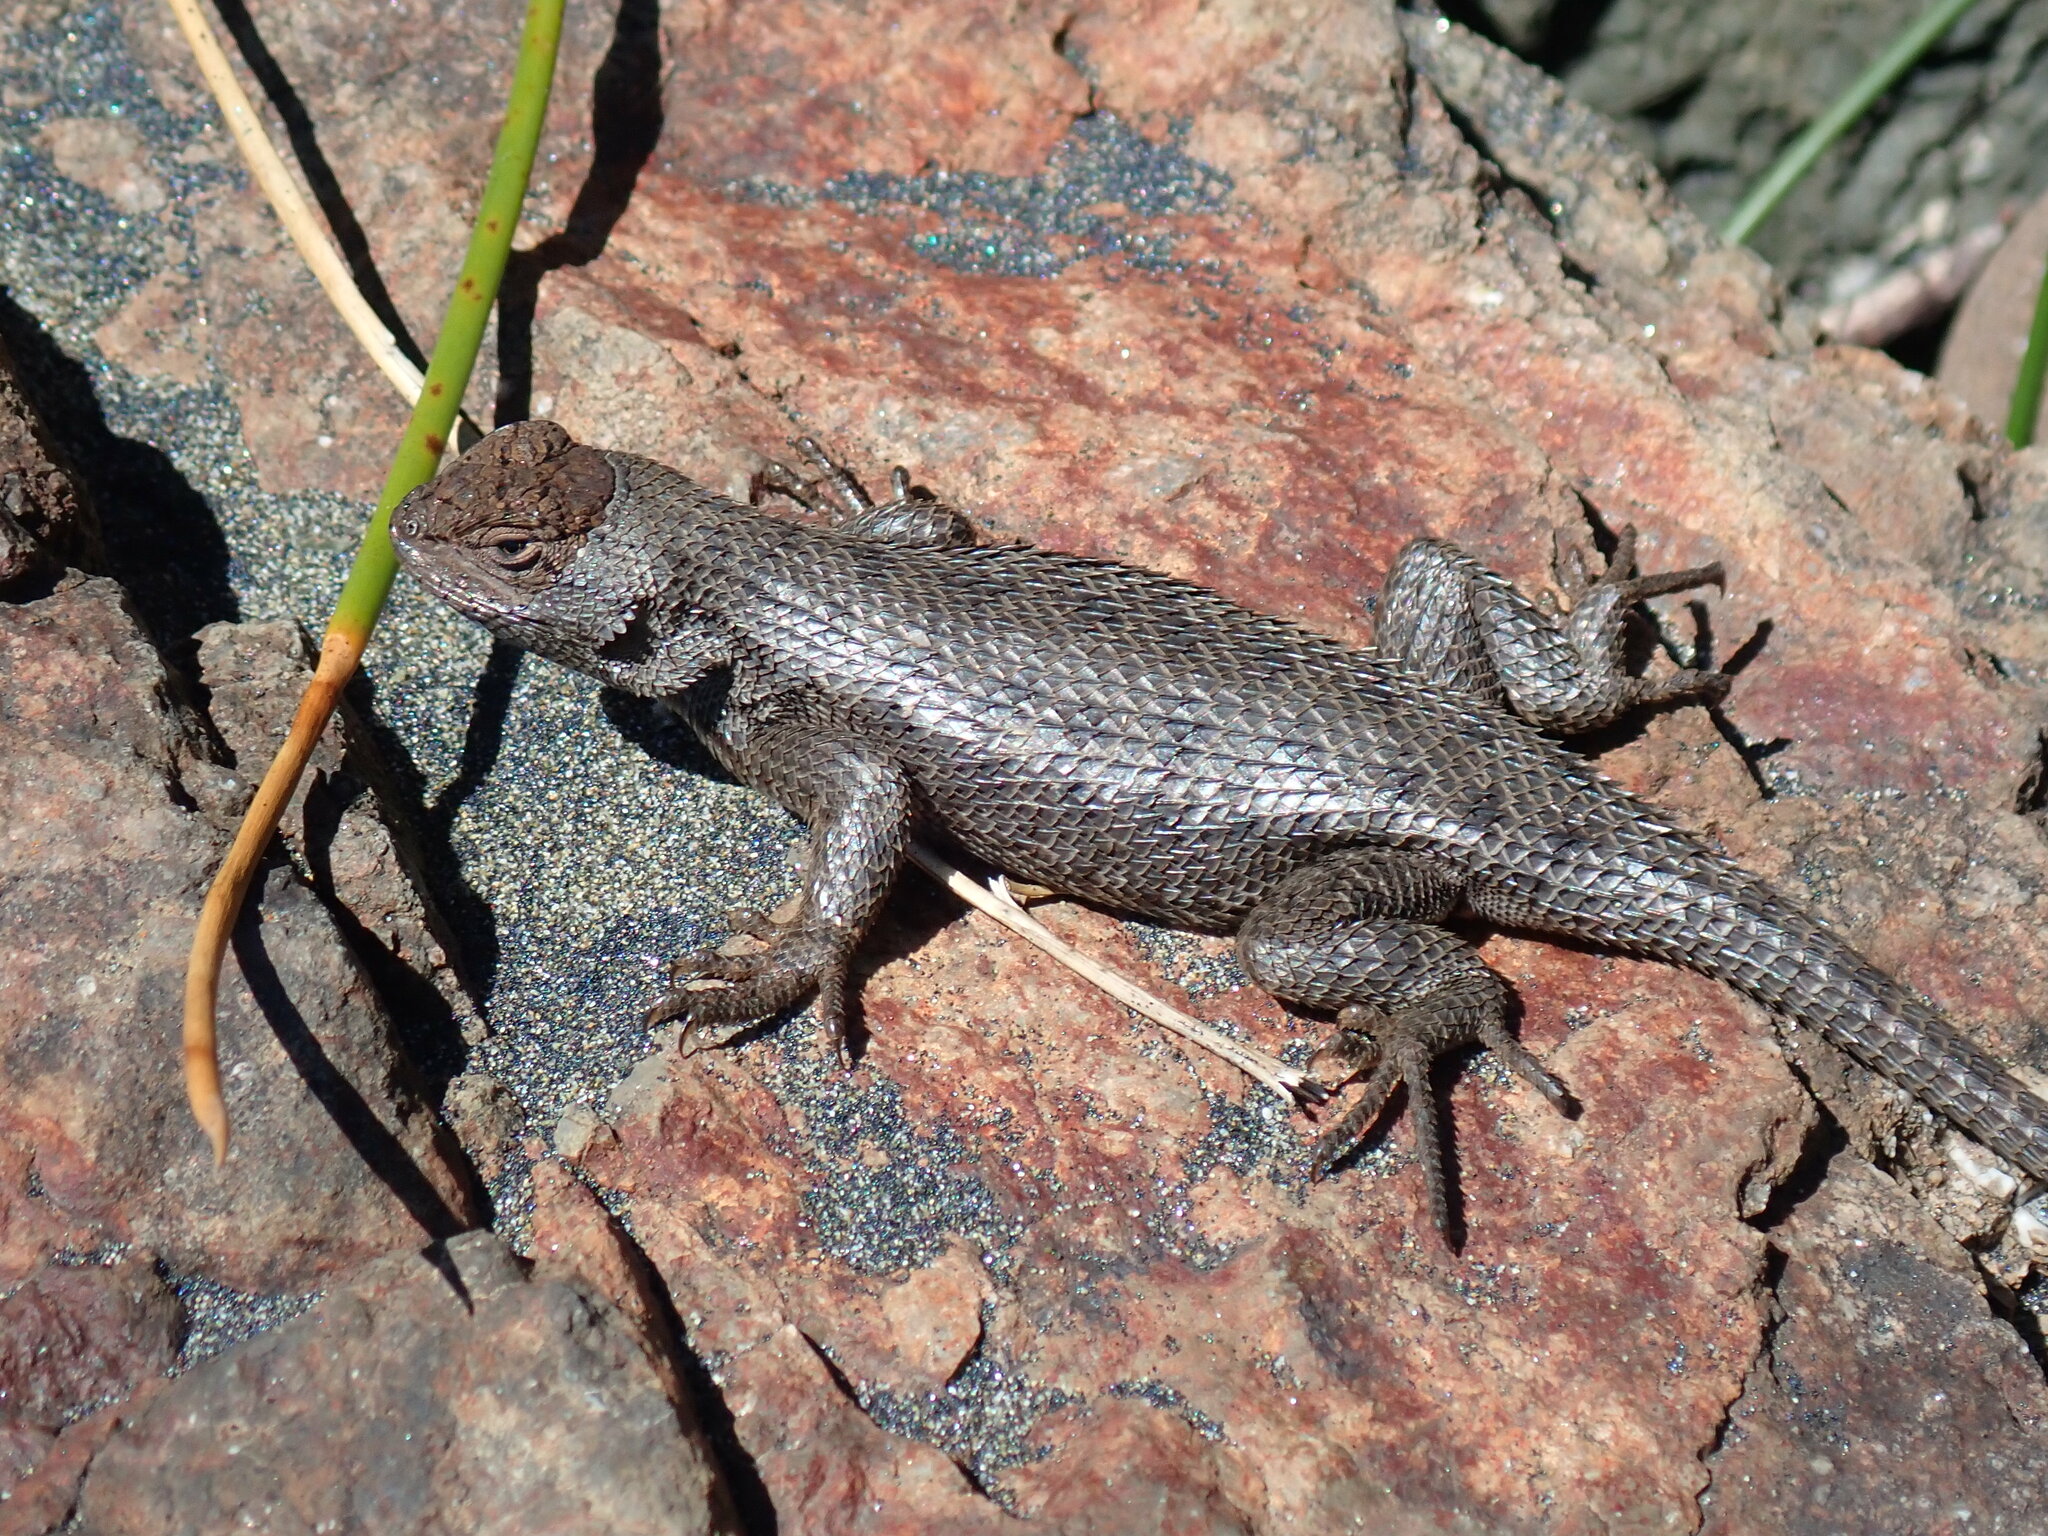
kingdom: Animalia
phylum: Chordata
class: Squamata
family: Phrynosomatidae
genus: Sceloporus
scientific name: Sceloporus occidentalis
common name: Western fence lizard
